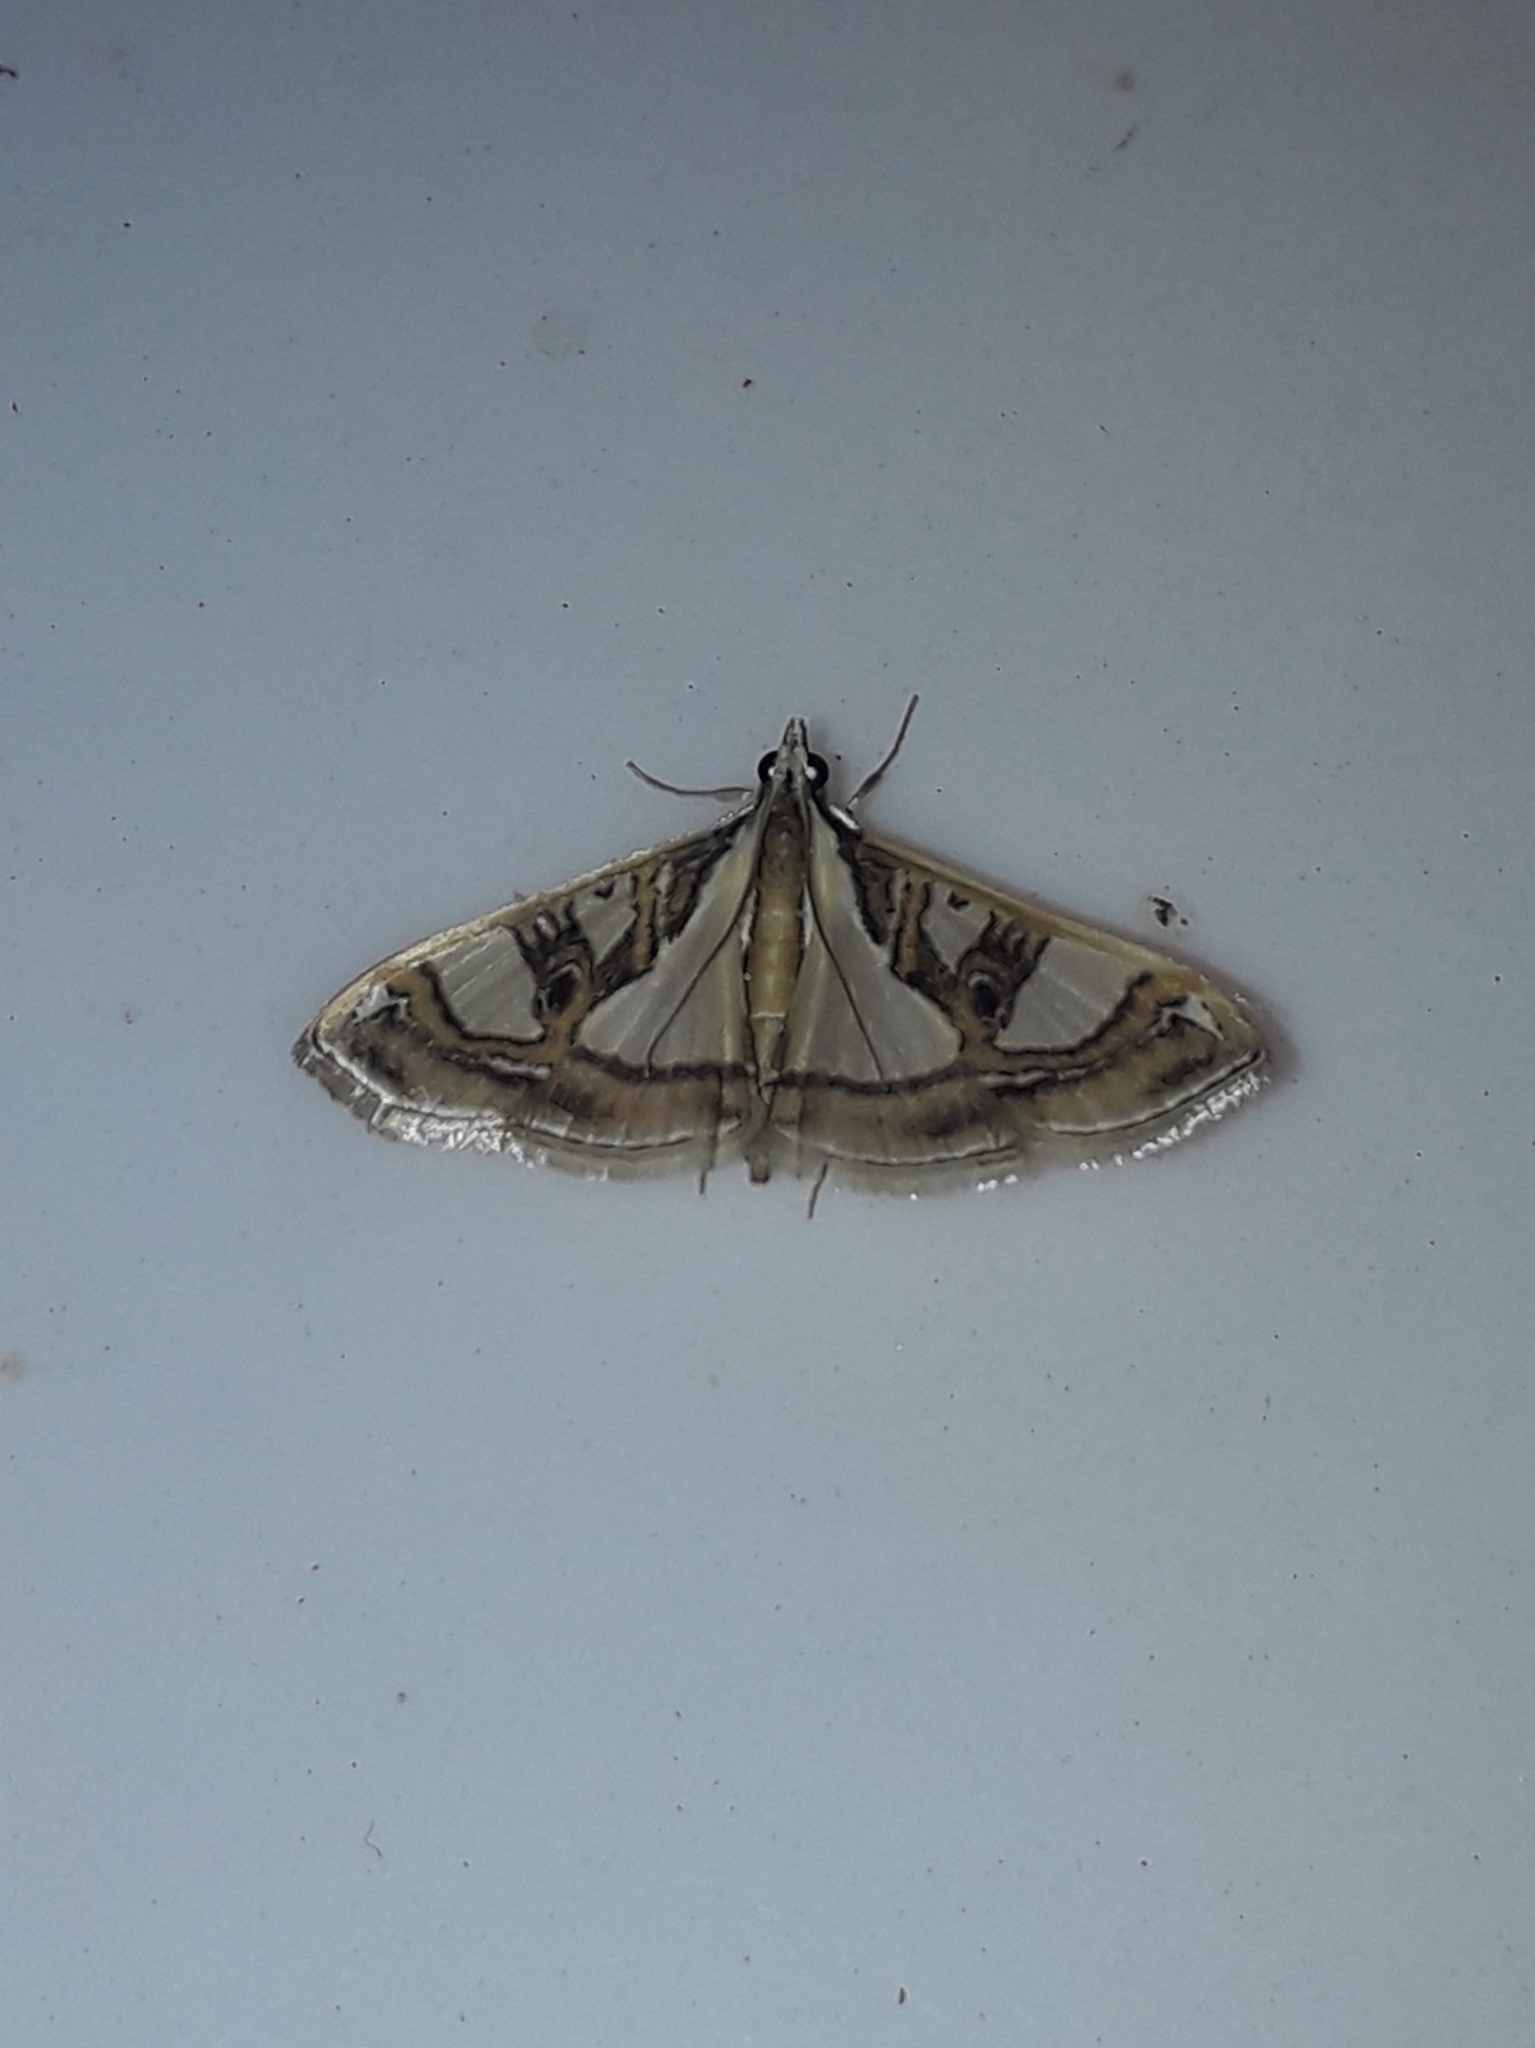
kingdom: Animalia
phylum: Arthropoda
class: Insecta
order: Lepidoptera
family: Crambidae
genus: Glyphodes
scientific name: Glyphodes pyloalis
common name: Lesser mulberry snout moth
